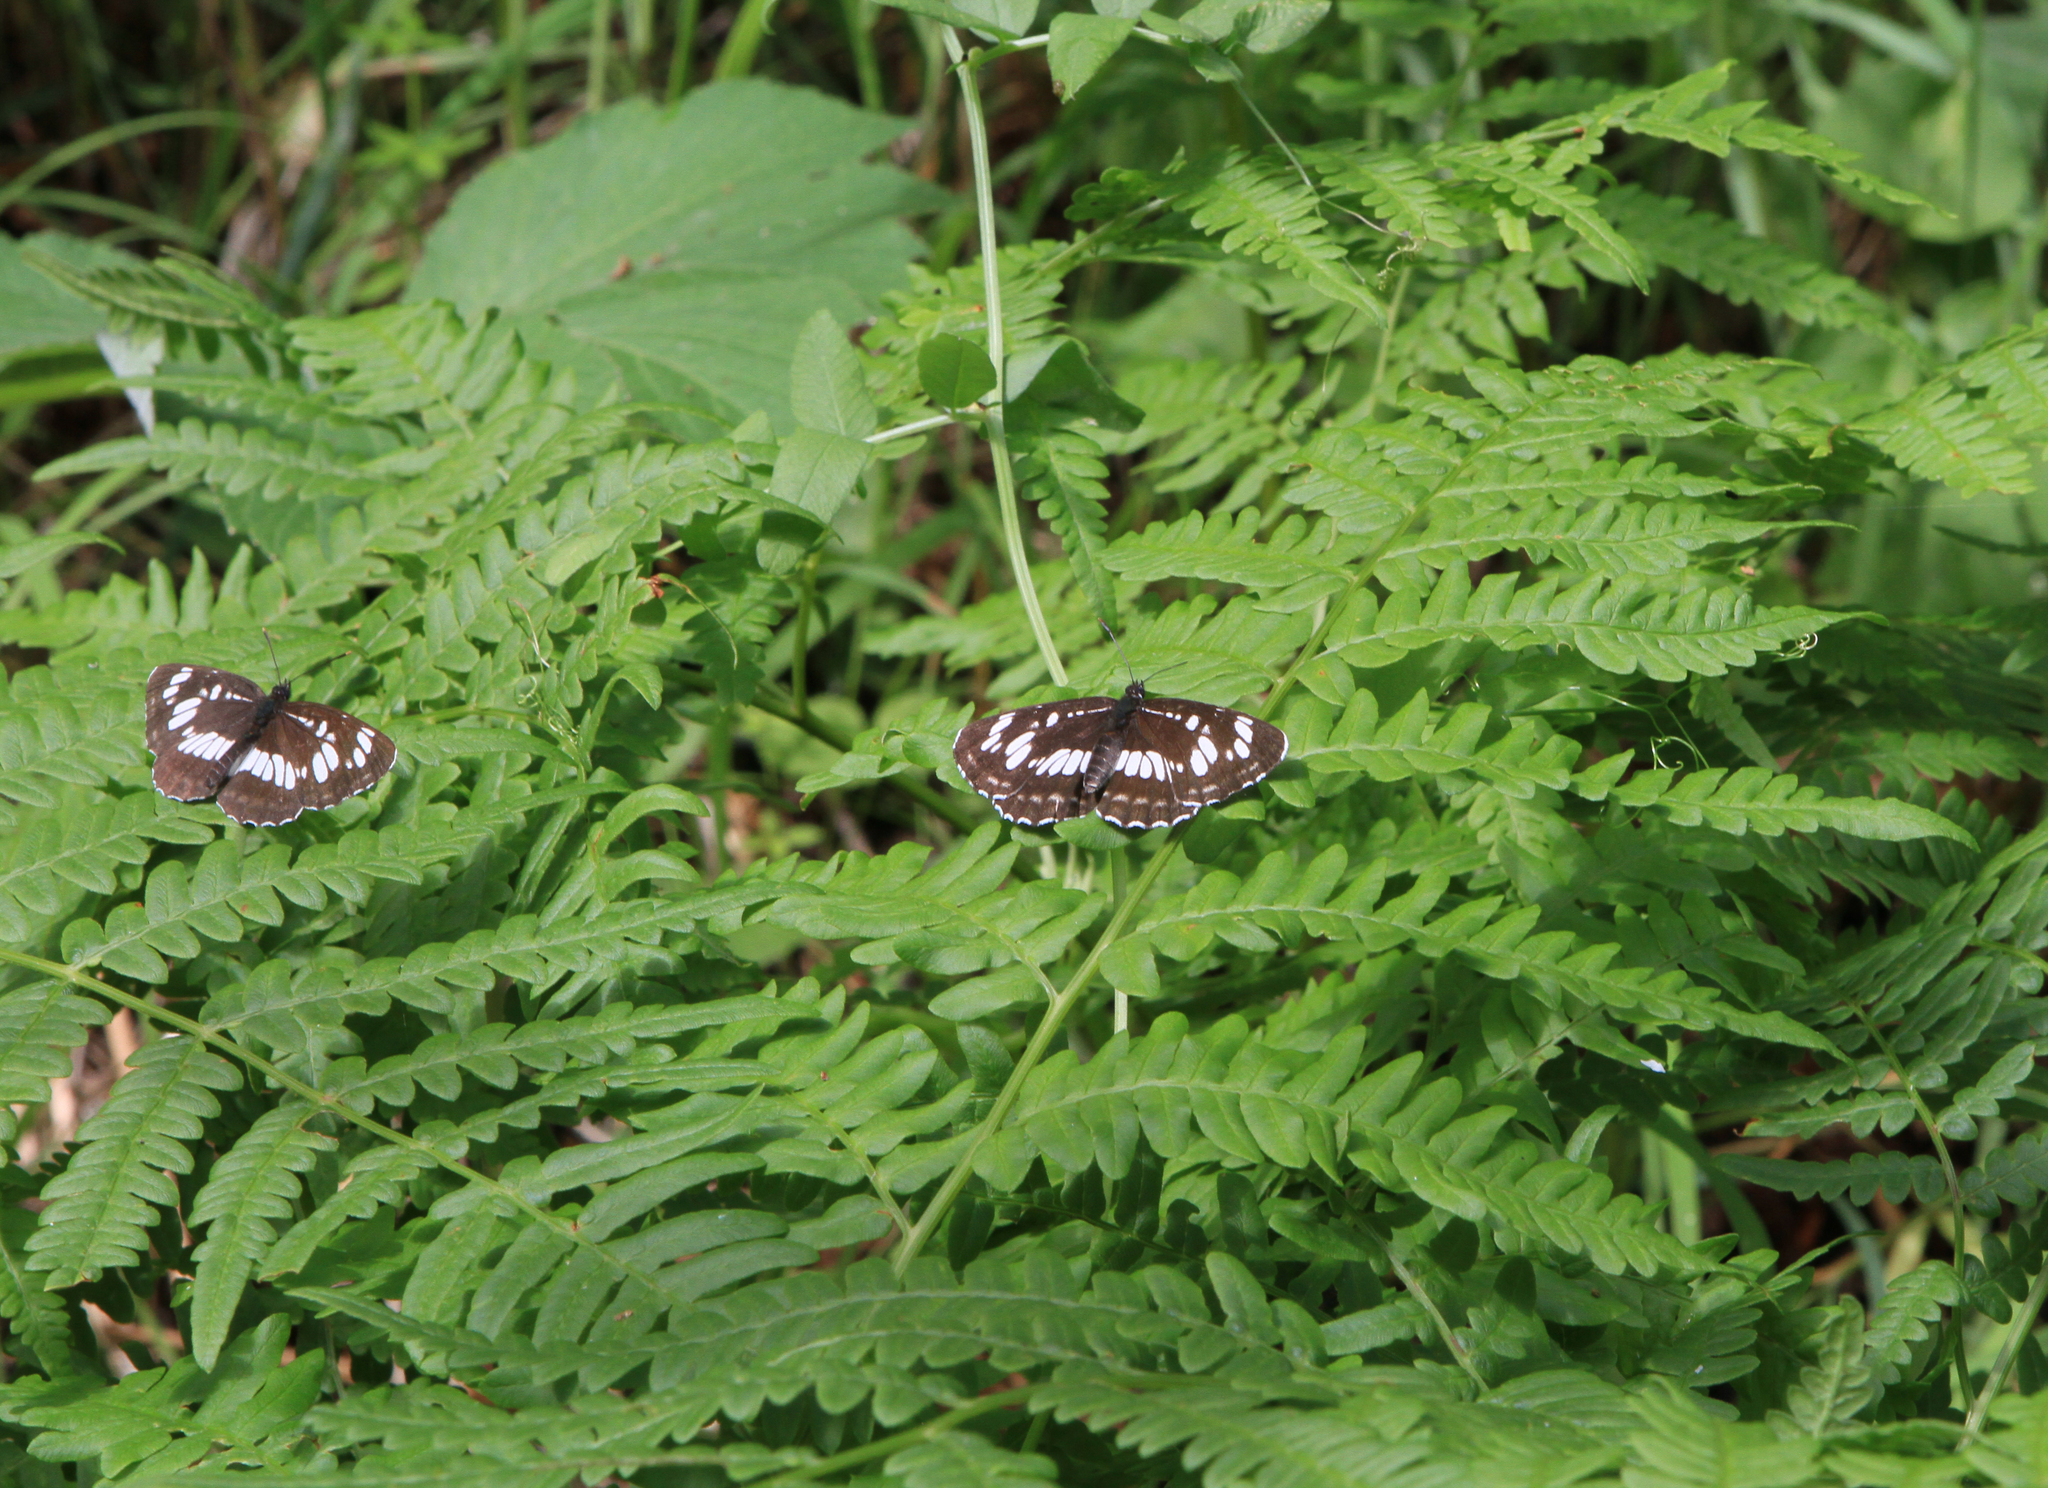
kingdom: Plantae
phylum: Tracheophyta
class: Polypodiopsida
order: Polypodiales
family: Dennstaedtiaceae
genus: Pteridium
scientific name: Pteridium aquilinum
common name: Bracken
